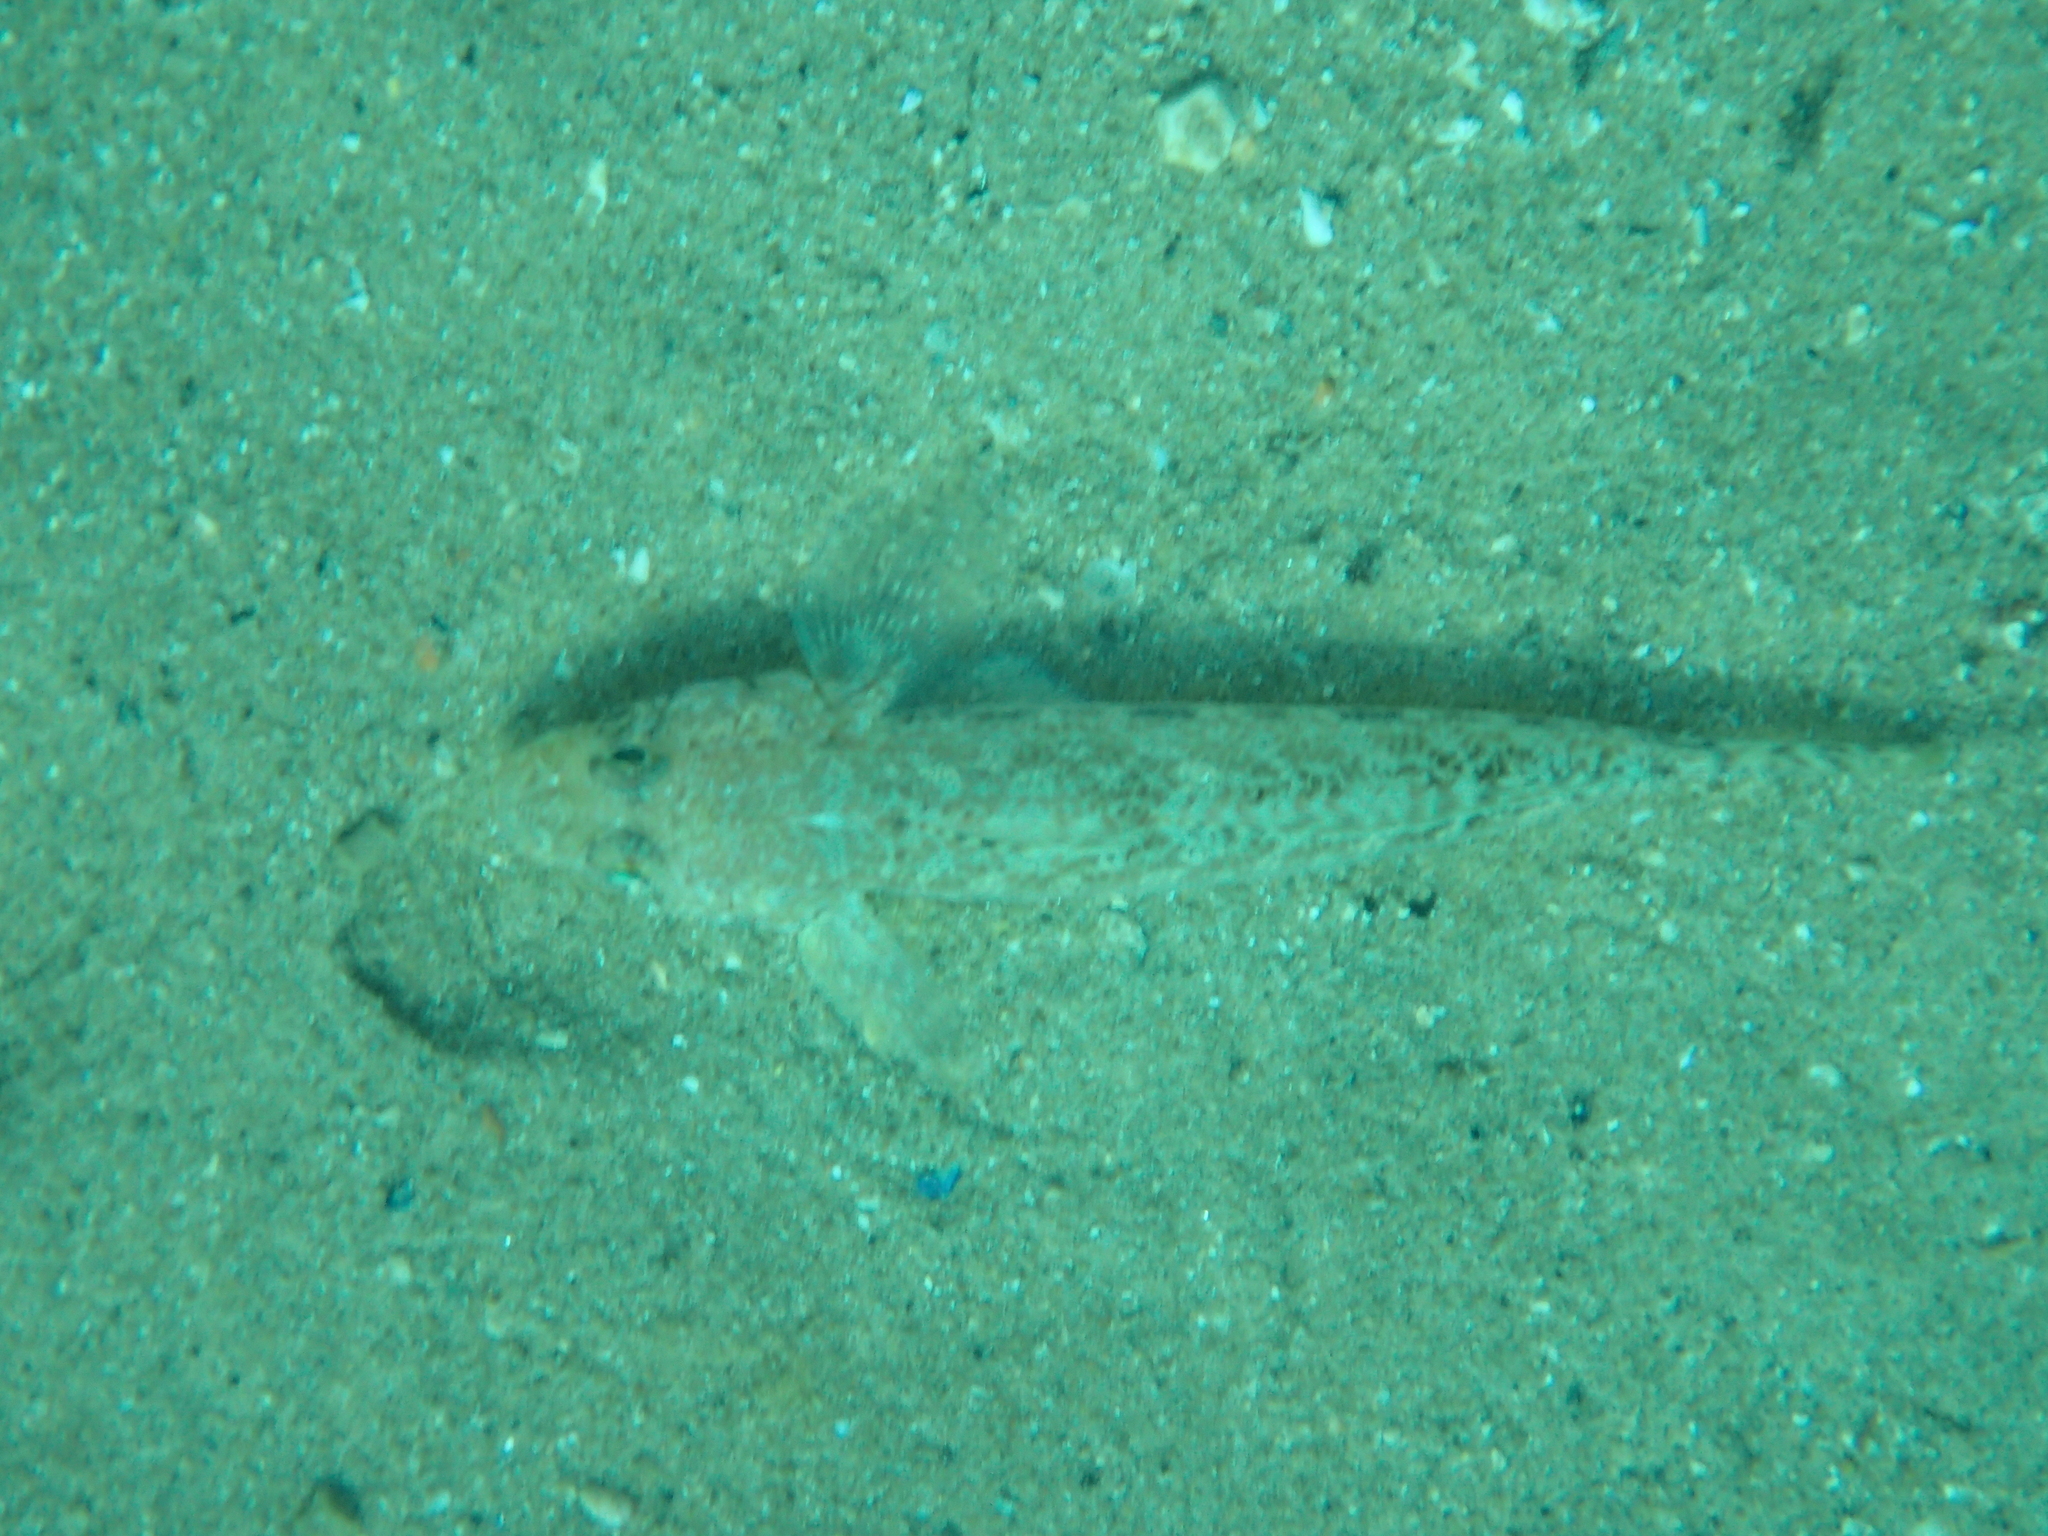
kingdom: Animalia
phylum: Chordata
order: Perciformes
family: Gobiidae
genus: Gobius
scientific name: Gobius geniporus
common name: Slender goby
